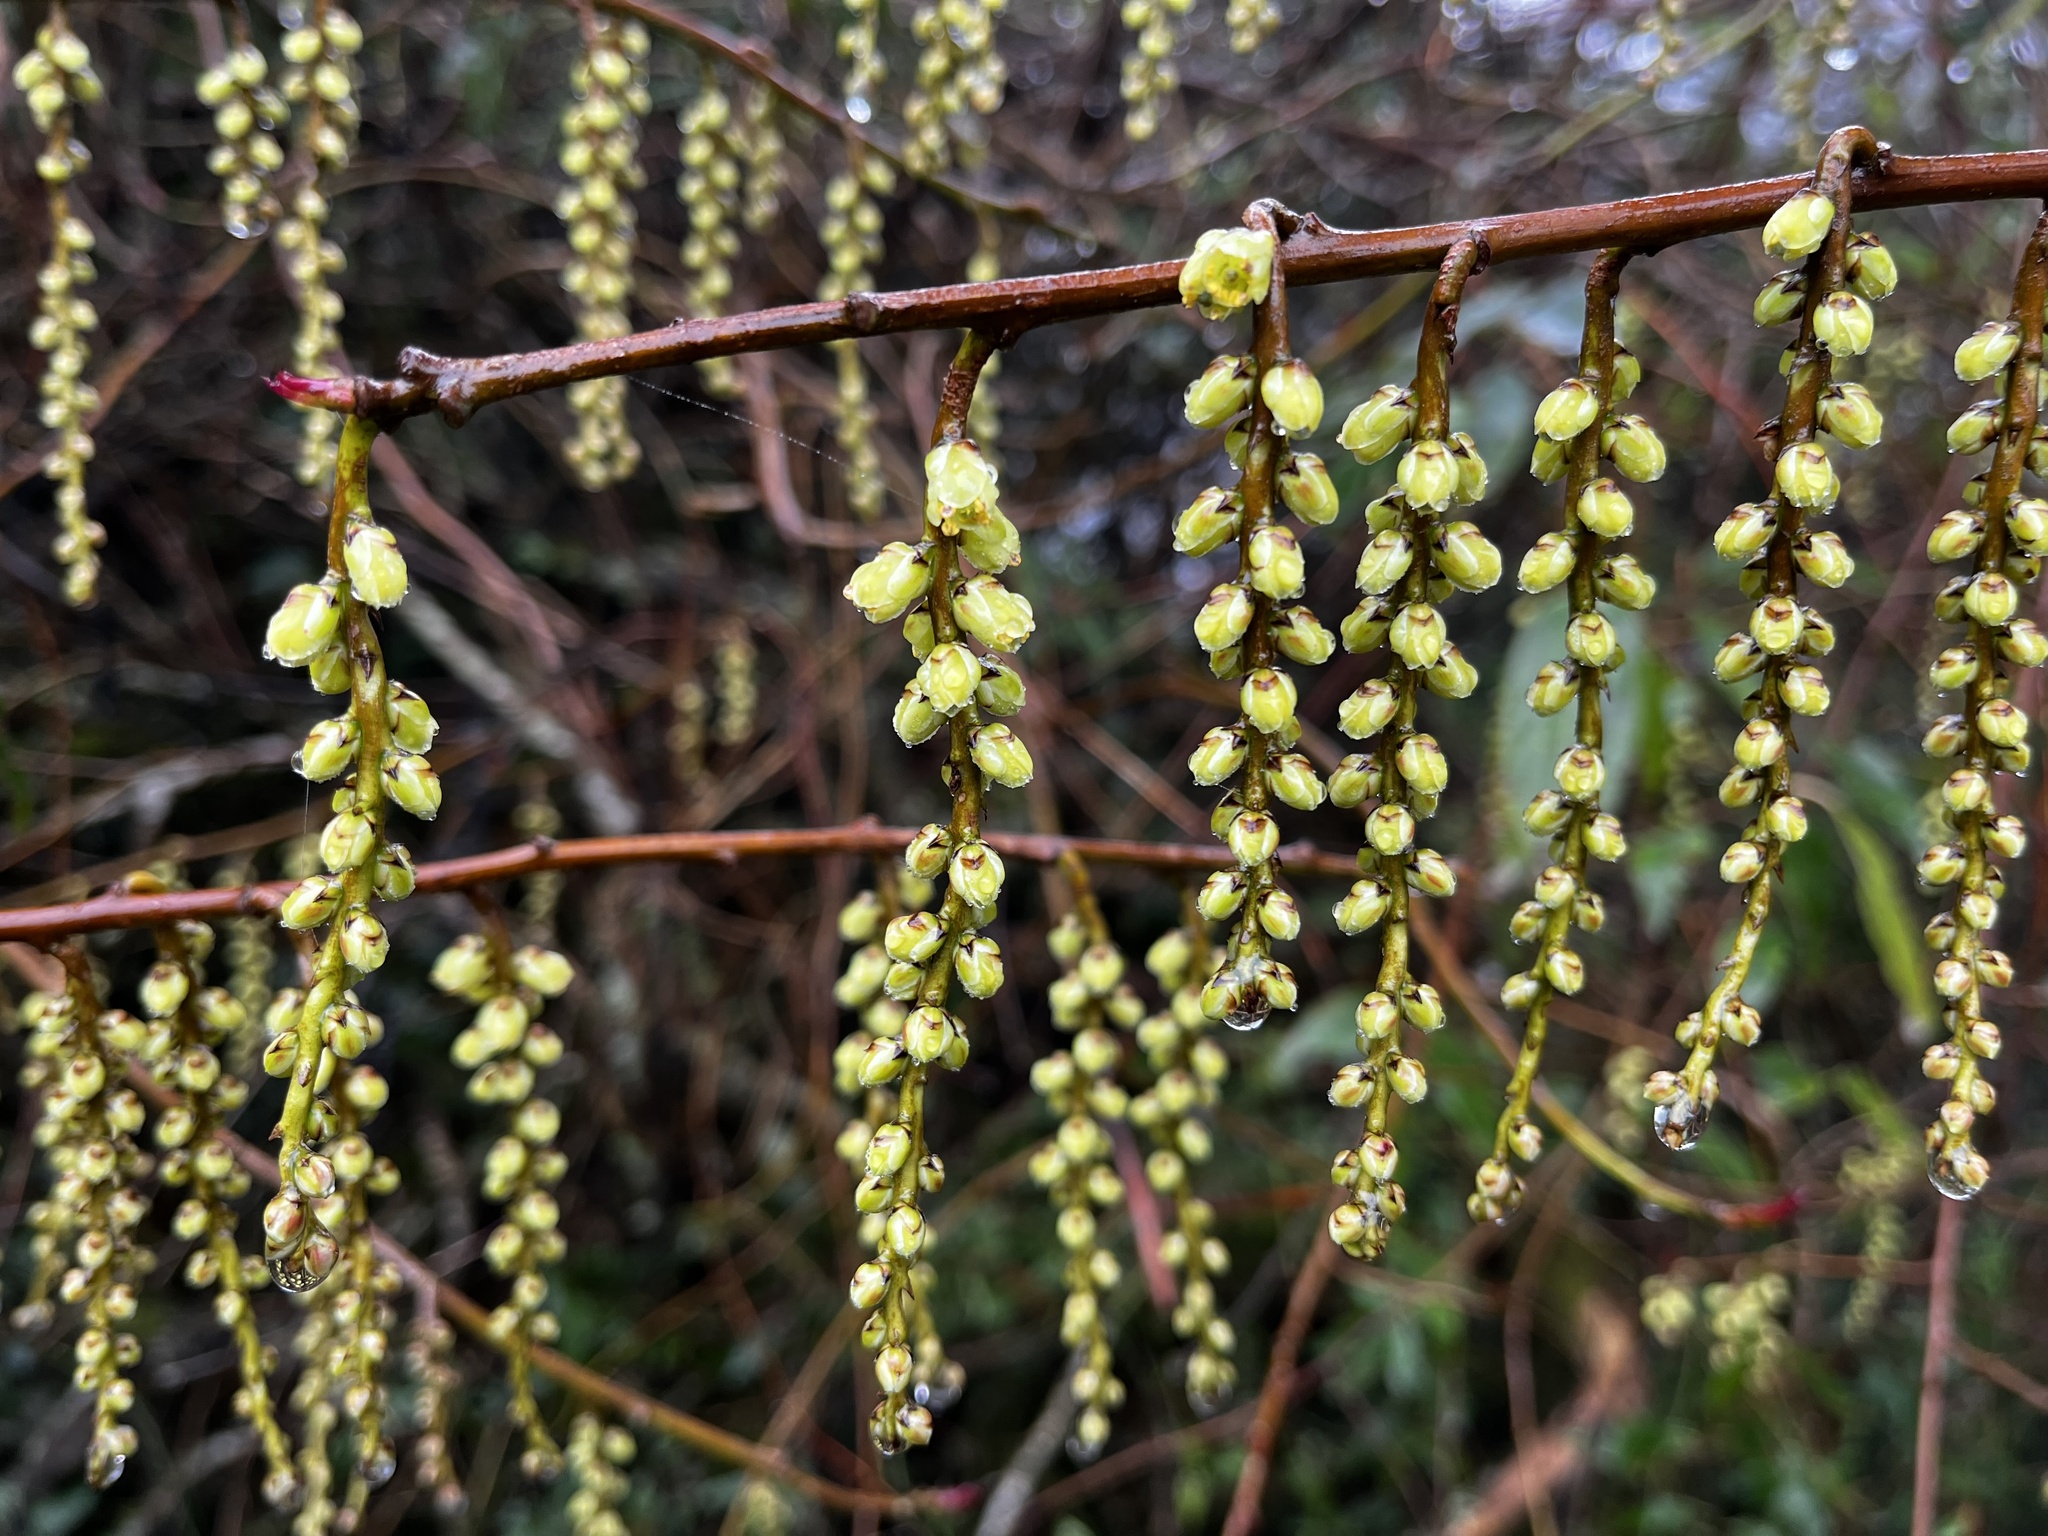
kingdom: Plantae
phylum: Tracheophyta
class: Magnoliopsida
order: Crossosomatales
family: Stachyuraceae
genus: Stachyurus
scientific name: Stachyurus himalaicus
